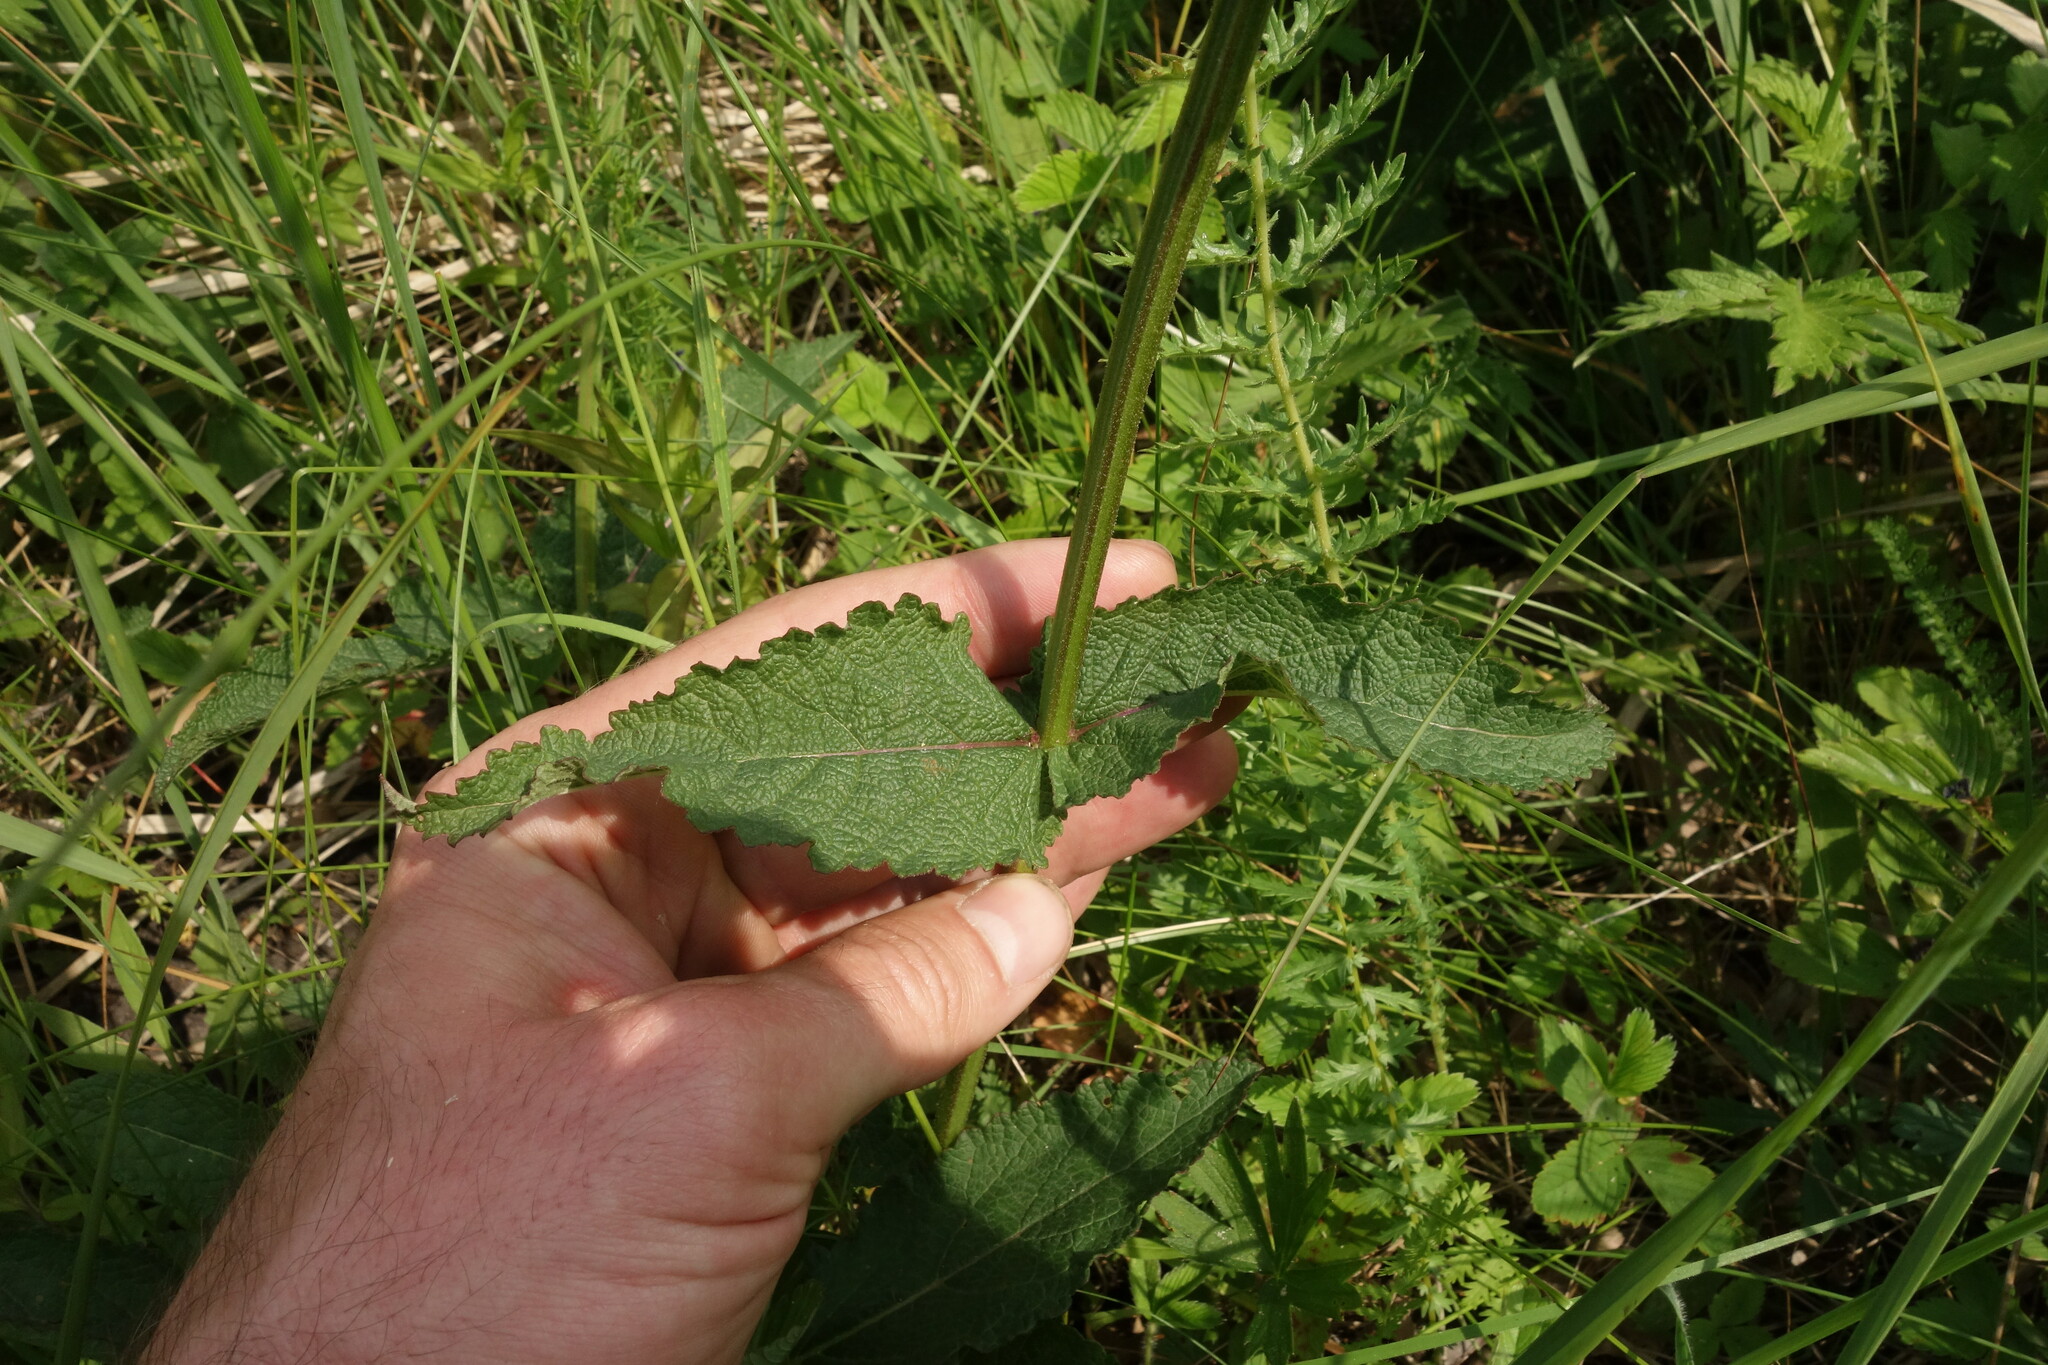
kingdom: Plantae
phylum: Tracheophyta
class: Magnoliopsida
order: Lamiales
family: Lamiaceae
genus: Salvia
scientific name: Salvia dumetorum
